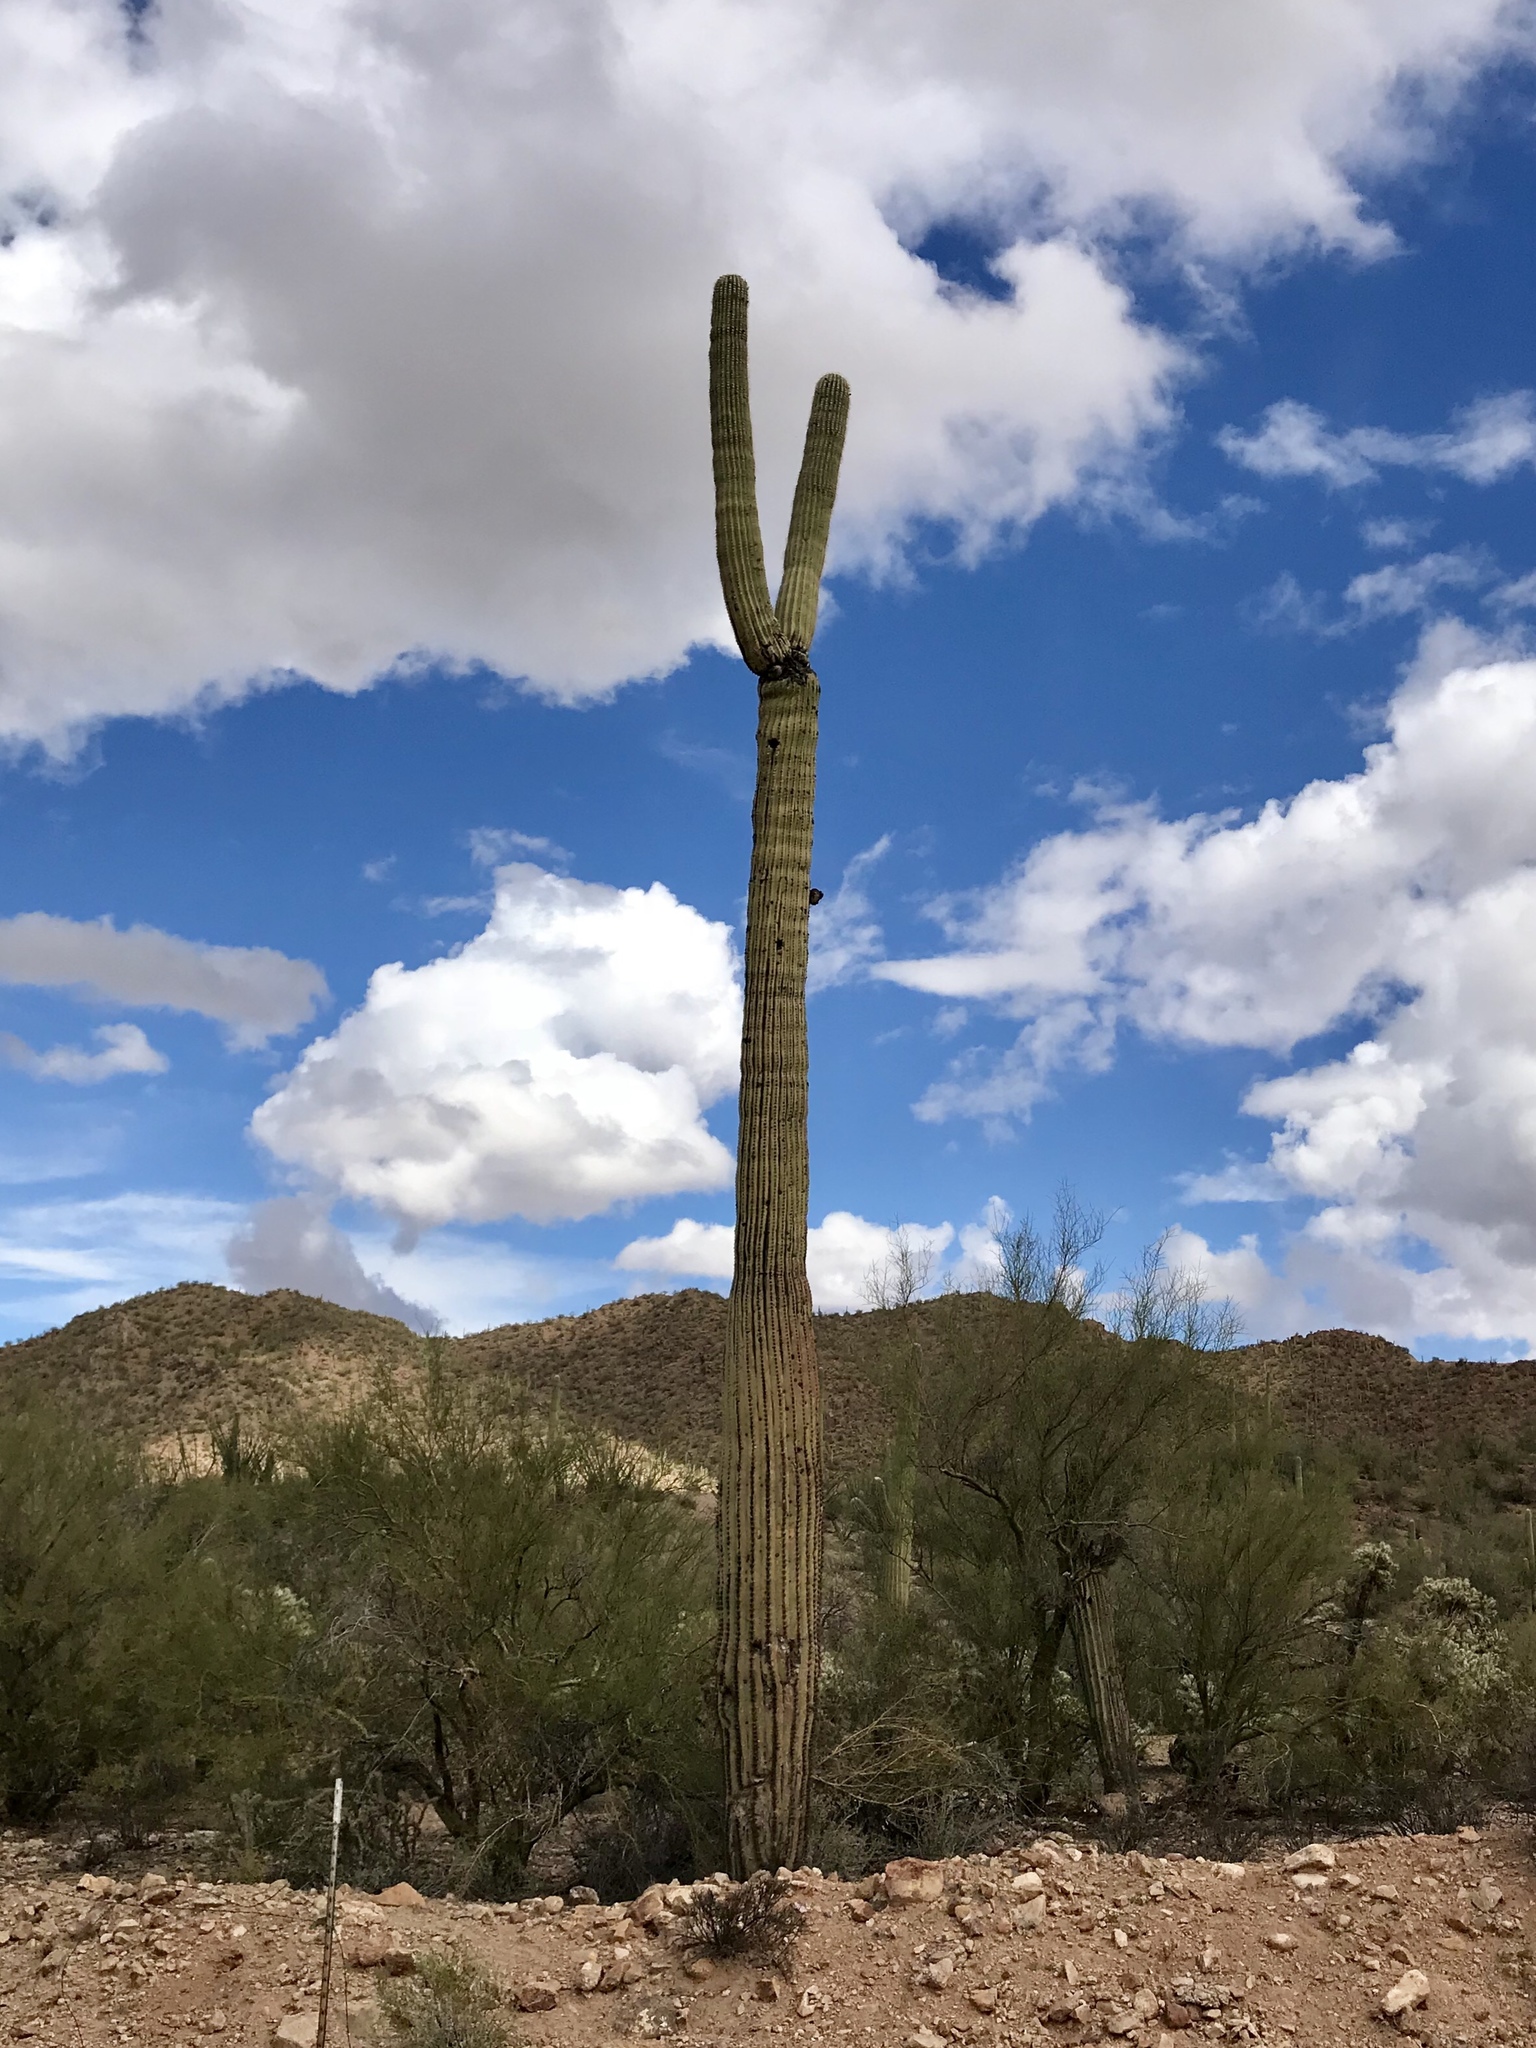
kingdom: Plantae
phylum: Tracheophyta
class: Magnoliopsida
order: Caryophyllales
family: Cactaceae
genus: Carnegiea
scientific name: Carnegiea gigantea
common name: Saguaro
